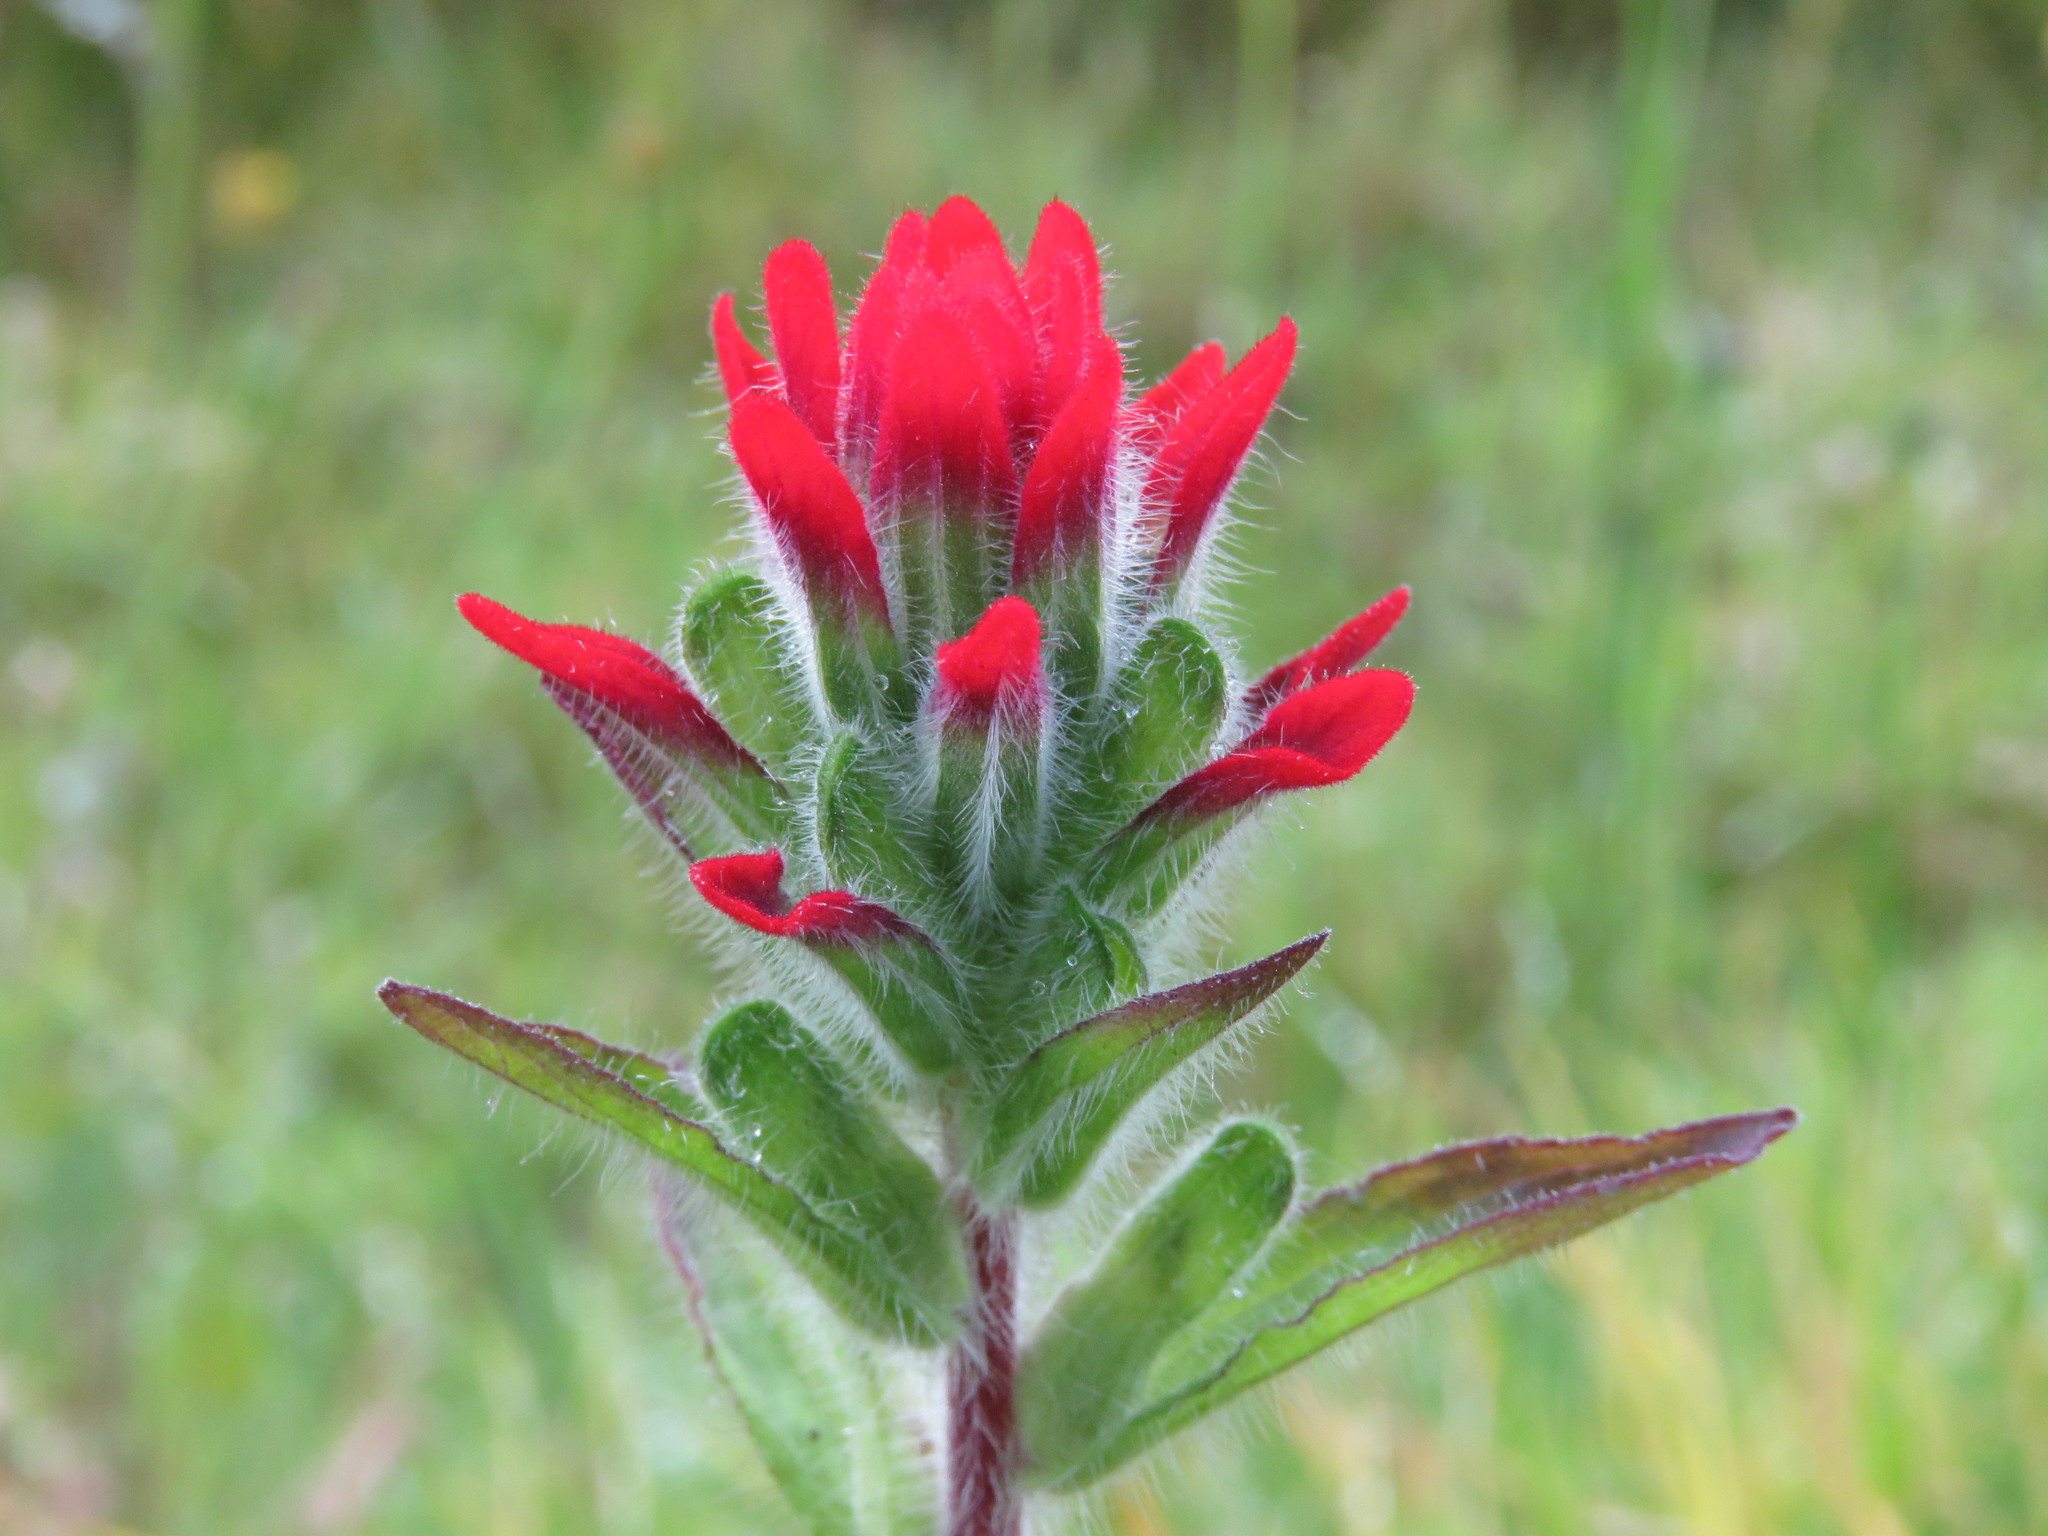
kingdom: Plantae
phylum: Tracheophyta
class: Magnoliopsida
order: Lamiales
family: Orobanchaceae
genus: Castilleja
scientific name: Castilleja arvensis
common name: Indian paintbrush
